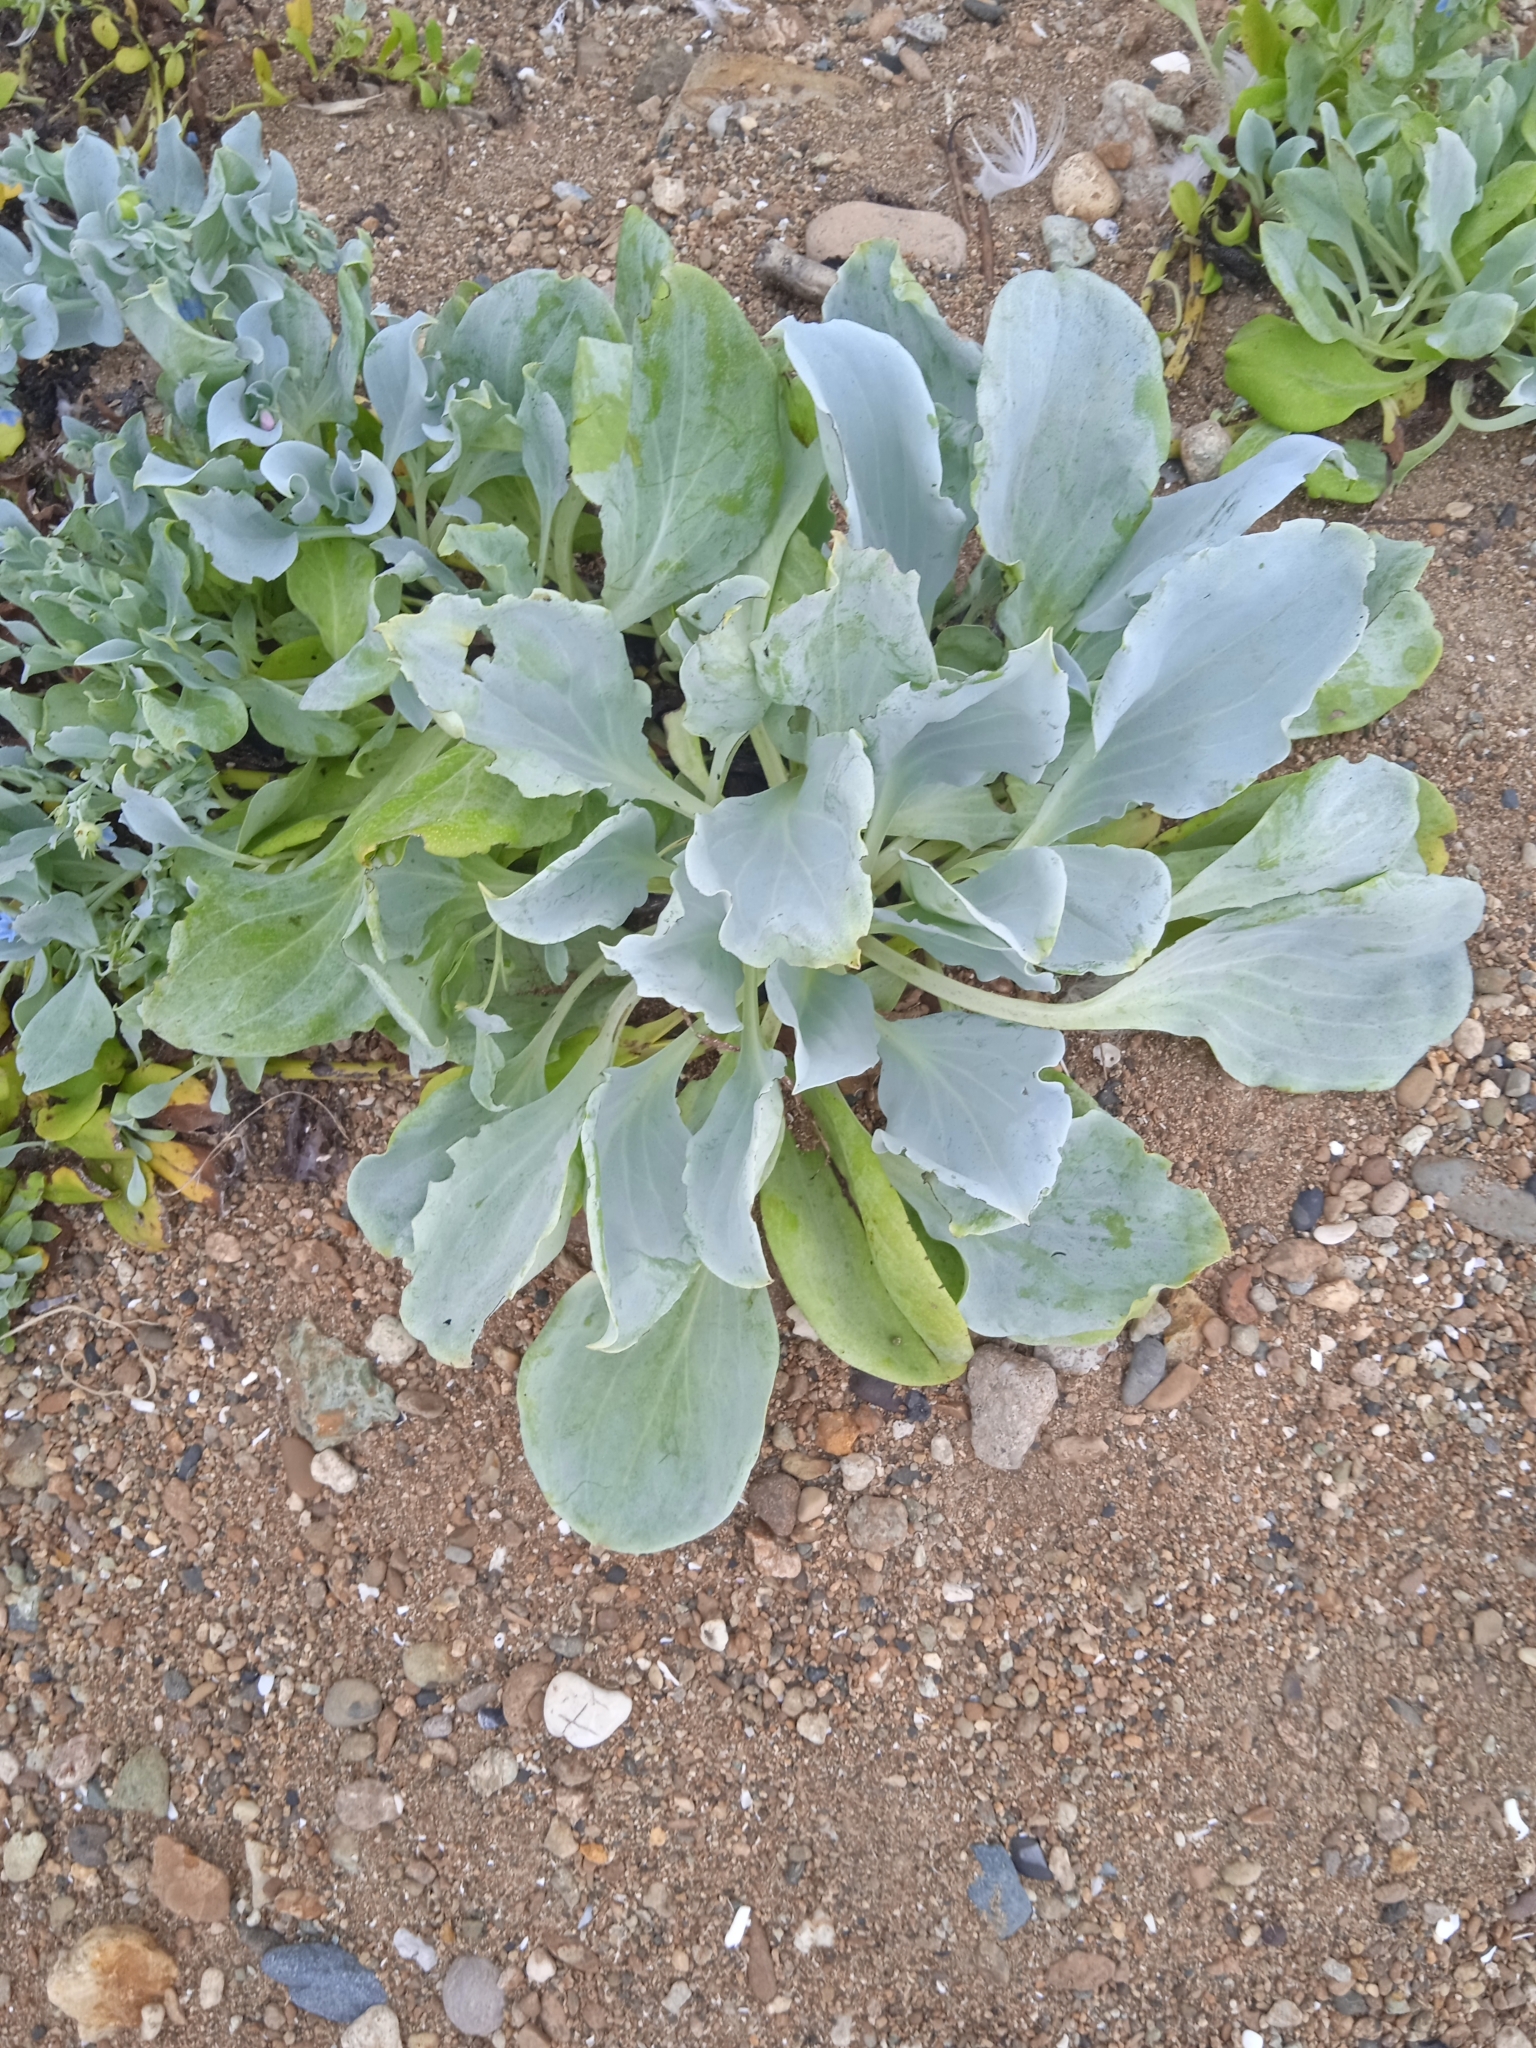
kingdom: Plantae
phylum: Tracheophyta
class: Magnoliopsida
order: Boraginales
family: Boraginaceae
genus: Mertensia
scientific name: Mertensia simplicissima
